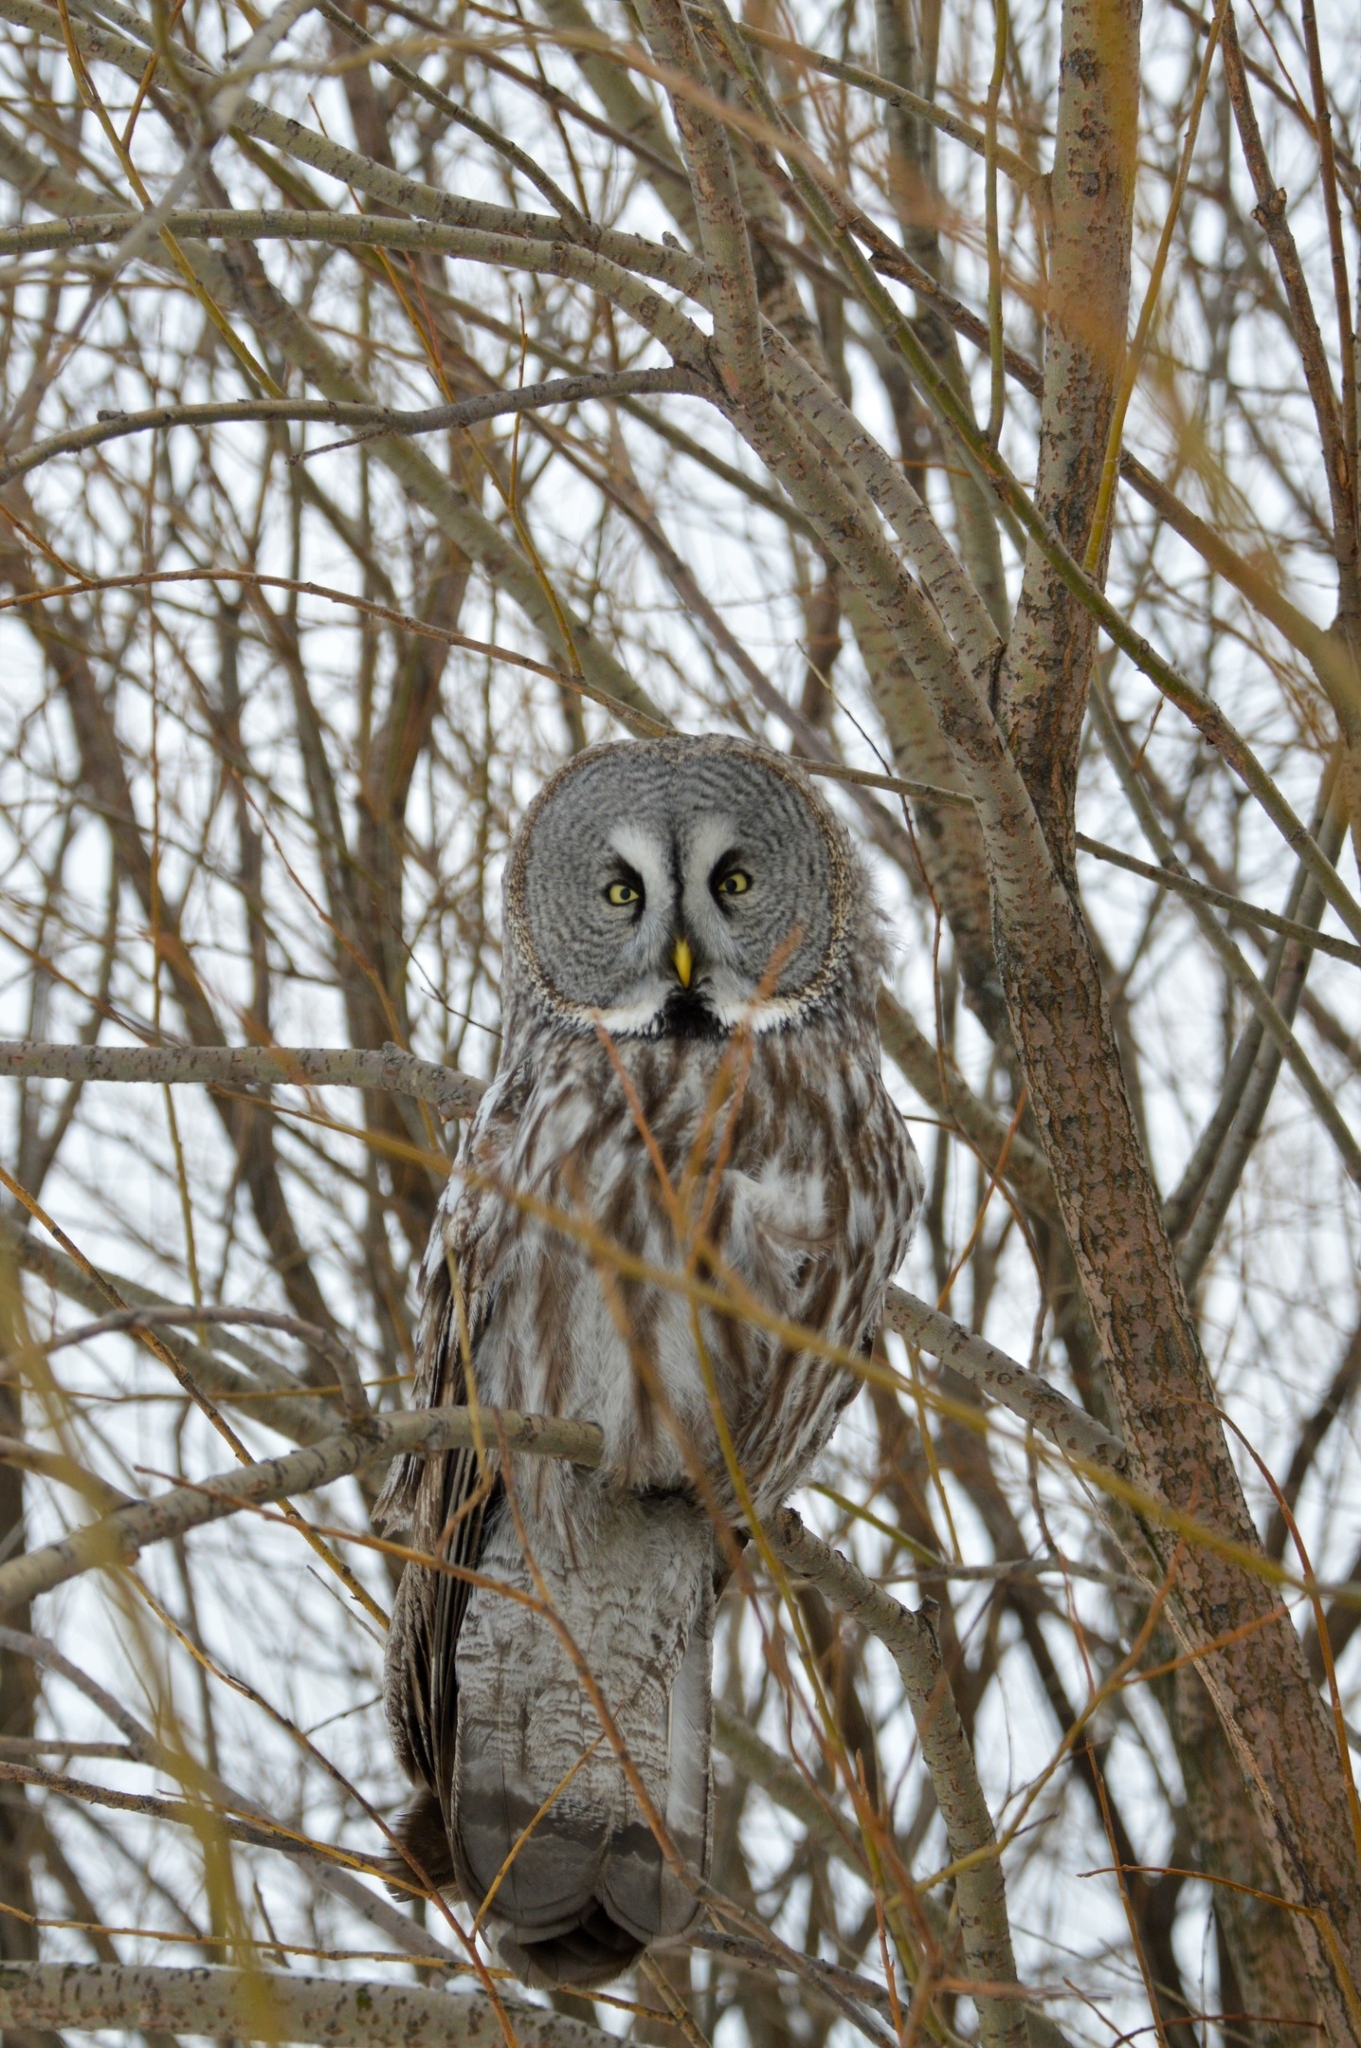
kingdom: Animalia
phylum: Chordata
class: Aves
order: Strigiformes
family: Strigidae
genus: Strix
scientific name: Strix nebulosa
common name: Great grey owl
